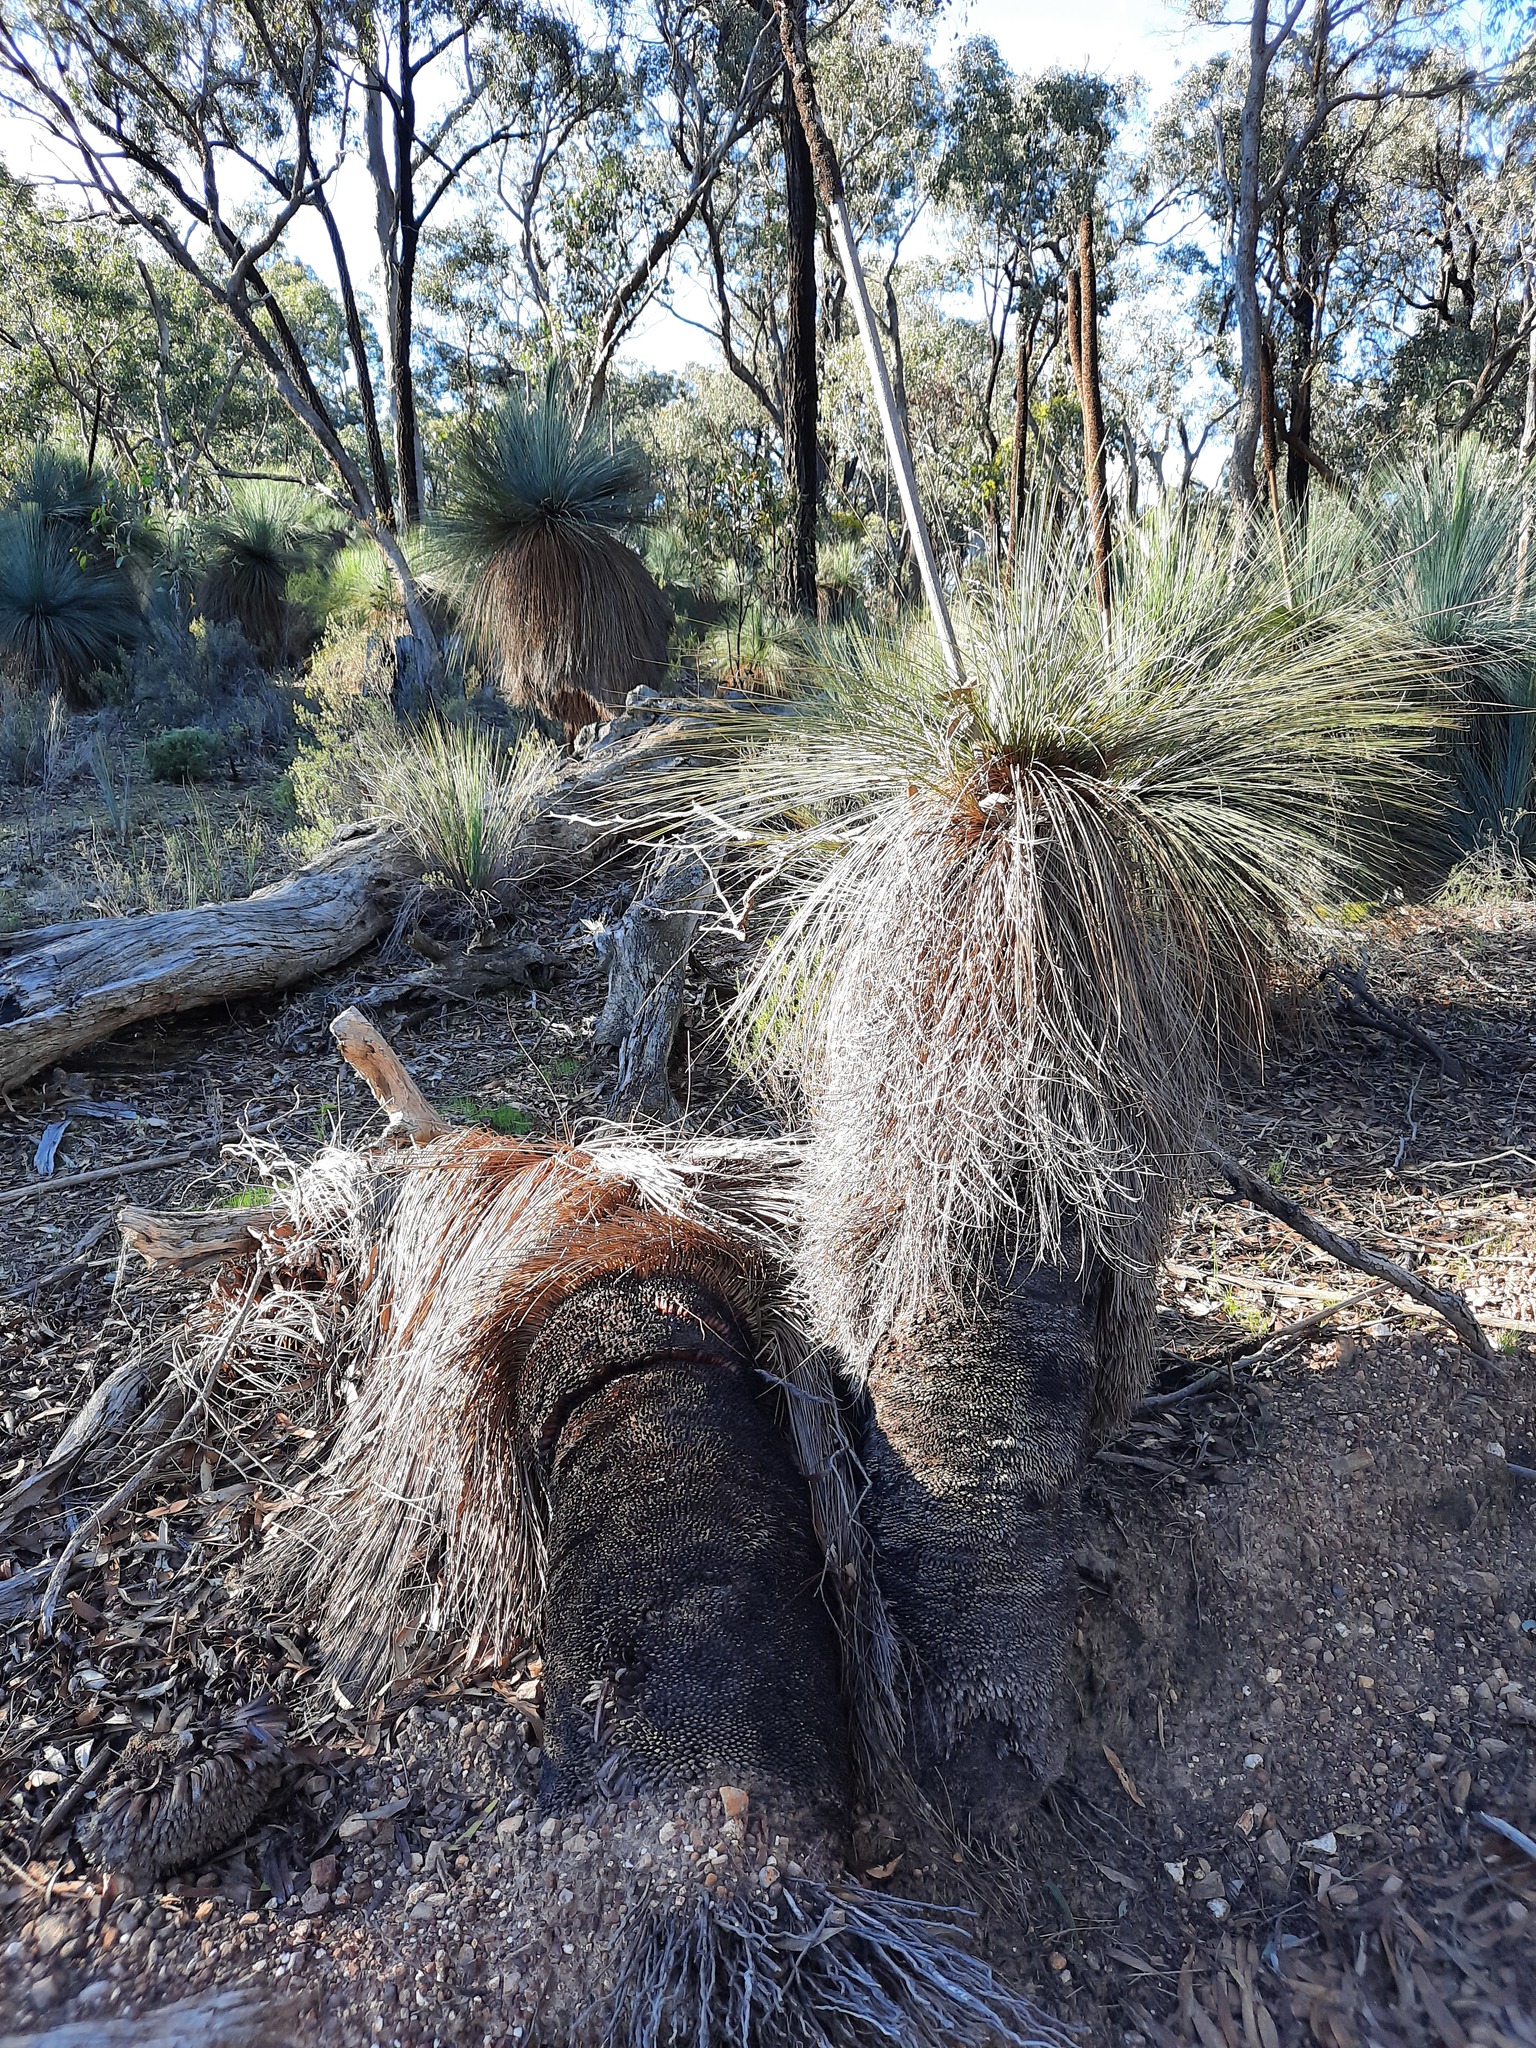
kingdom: Plantae
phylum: Tracheophyta
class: Liliopsida
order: Asparagales
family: Asphodelaceae
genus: Xanthorrhoea
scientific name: Xanthorrhoea glauca
